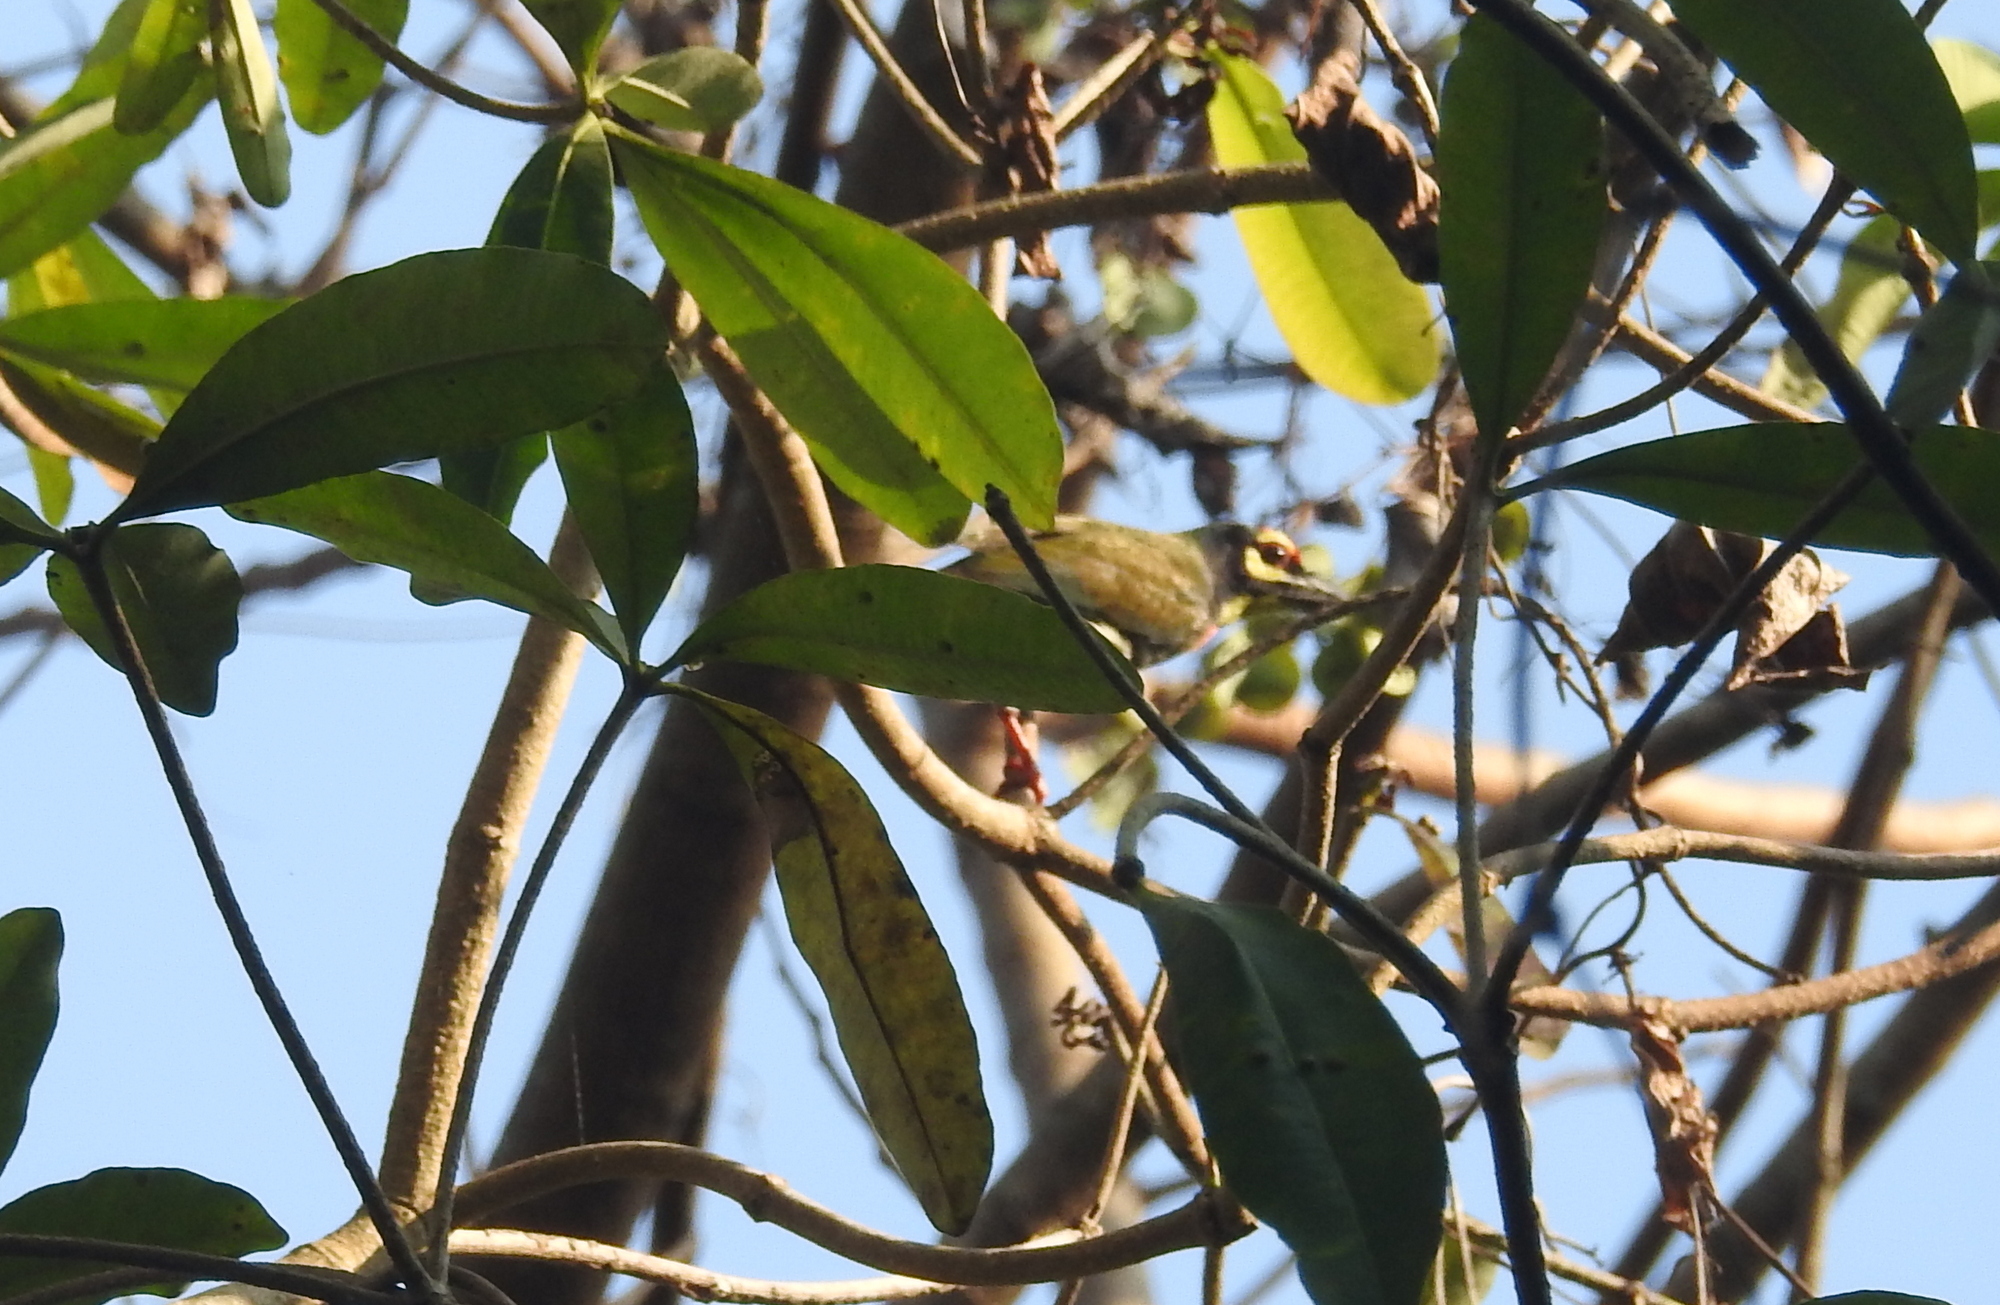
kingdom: Animalia
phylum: Chordata
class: Aves
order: Piciformes
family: Megalaimidae
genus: Psilopogon
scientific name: Psilopogon haemacephalus
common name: Coppersmith barbet
